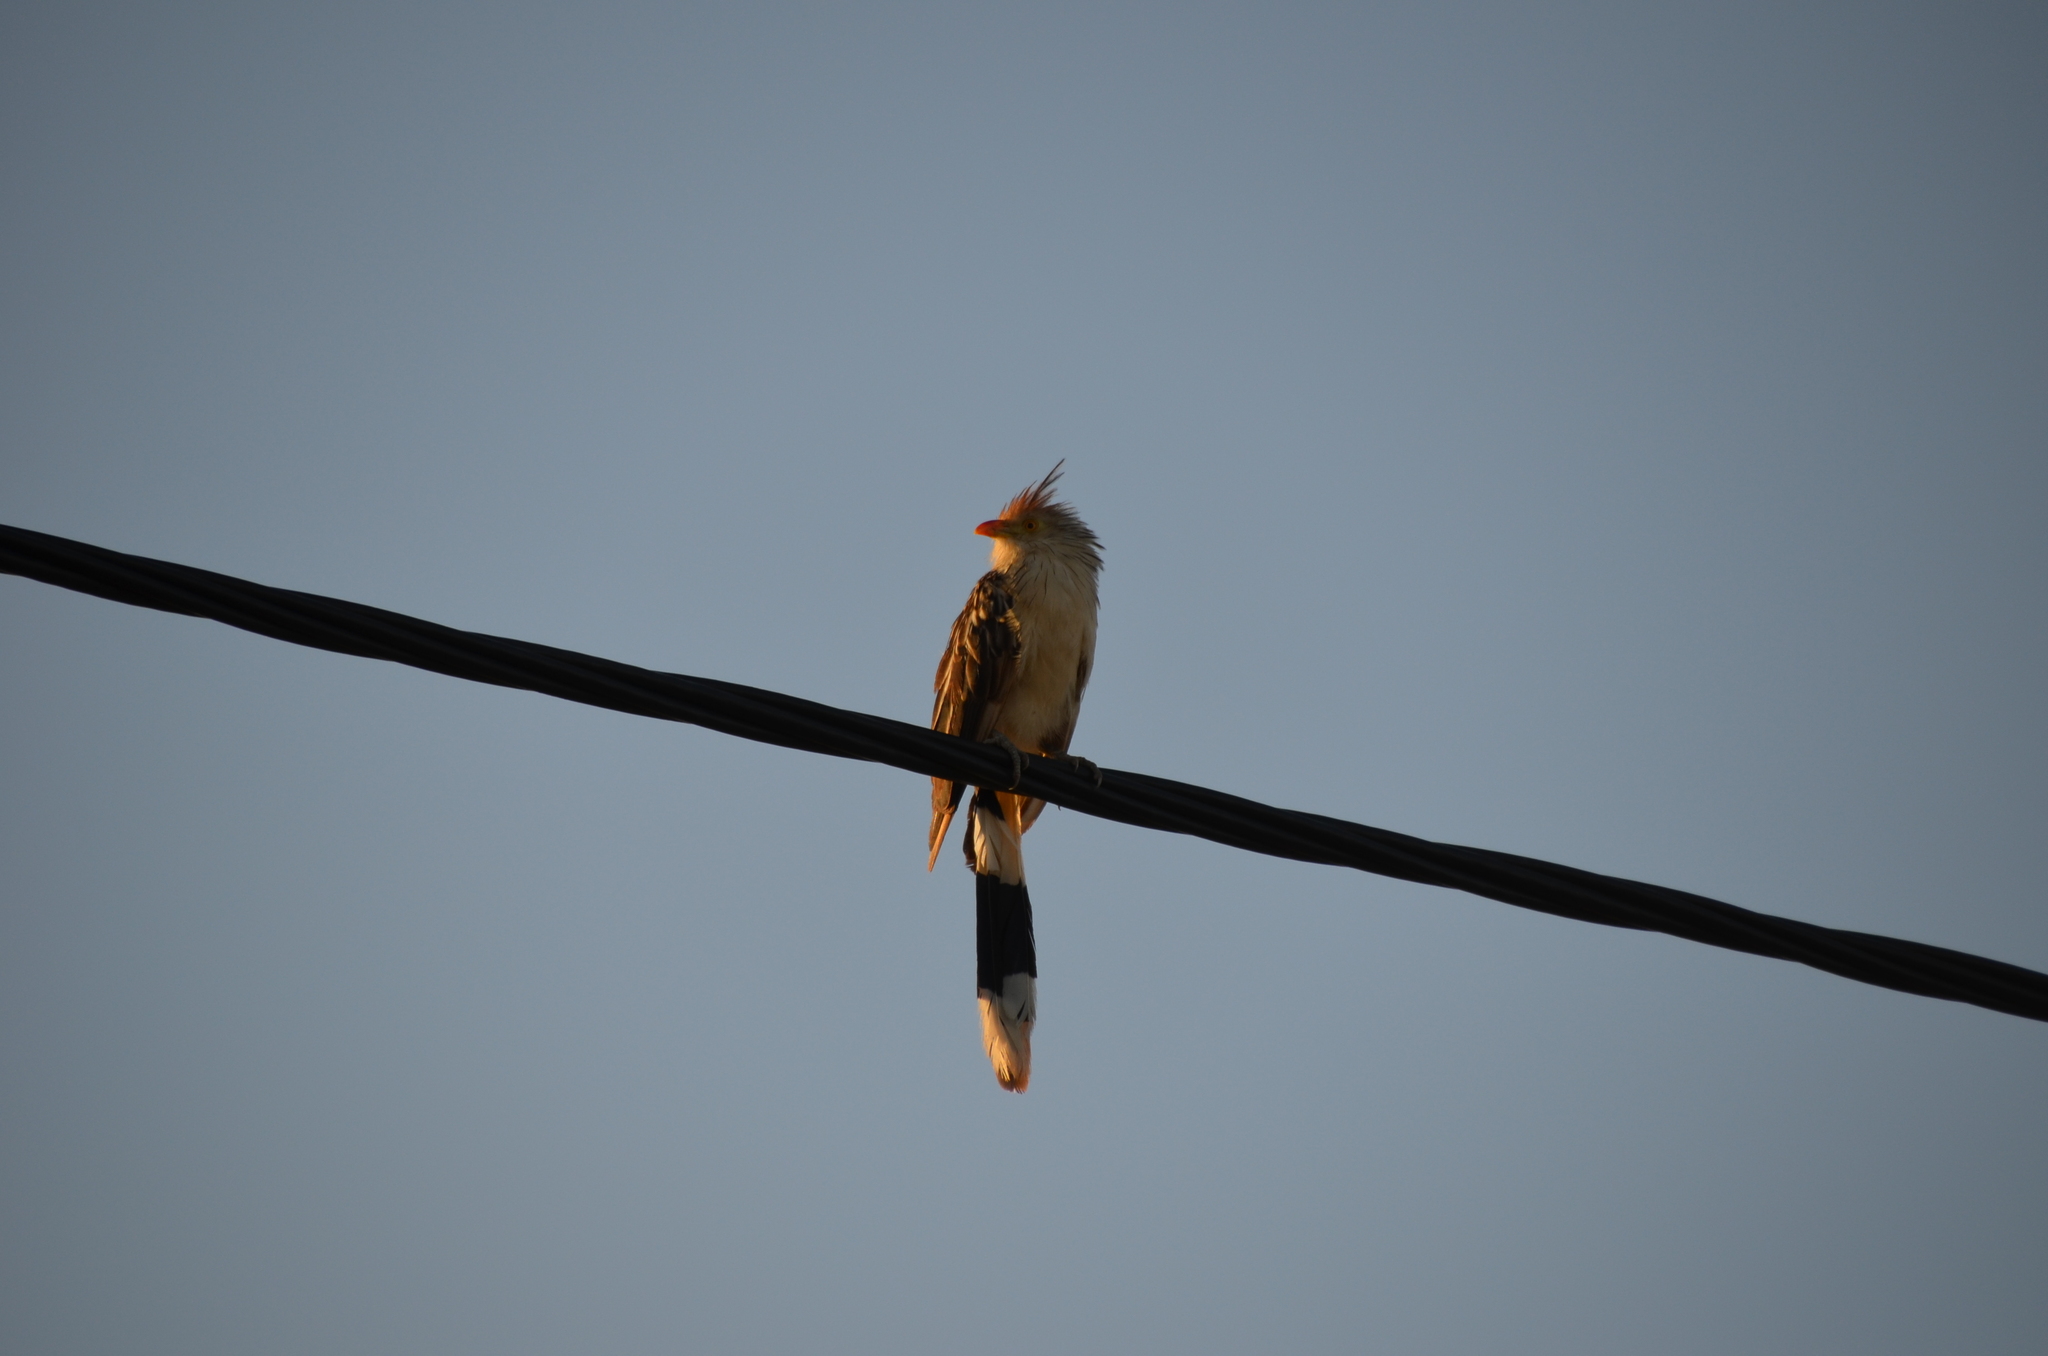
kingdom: Animalia
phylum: Chordata
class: Aves
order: Cuculiformes
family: Cuculidae
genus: Guira
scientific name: Guira guira
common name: Guira cuckoo
